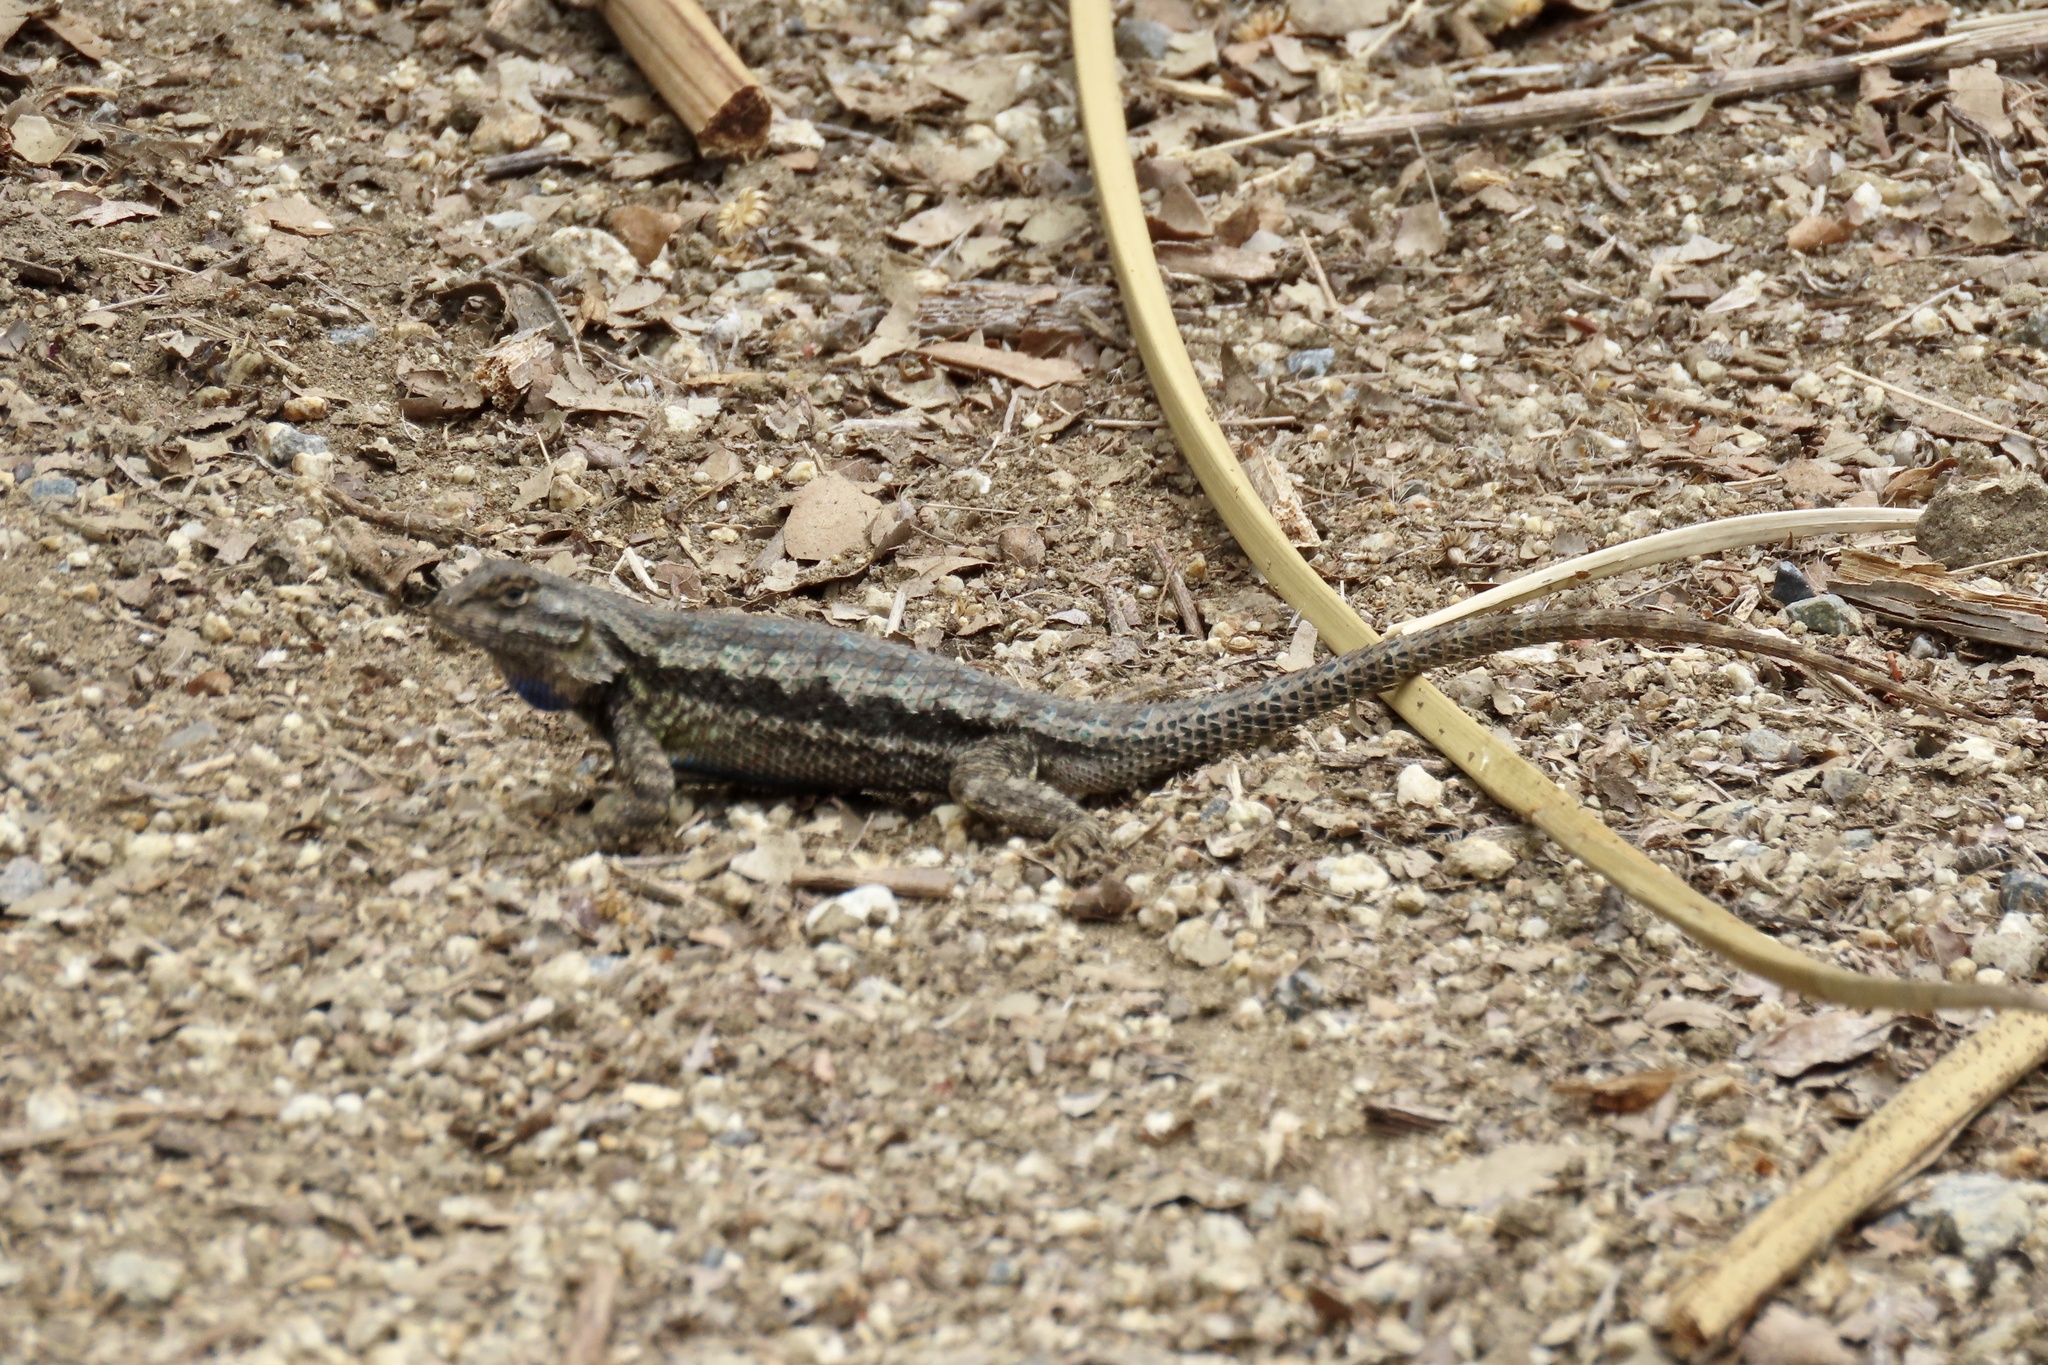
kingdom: Animalia
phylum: Chordata
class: Squamata
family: Phrynosomatidae
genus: Sceloporus
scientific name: Sceloporus occidentalis
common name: Western fence lizard
